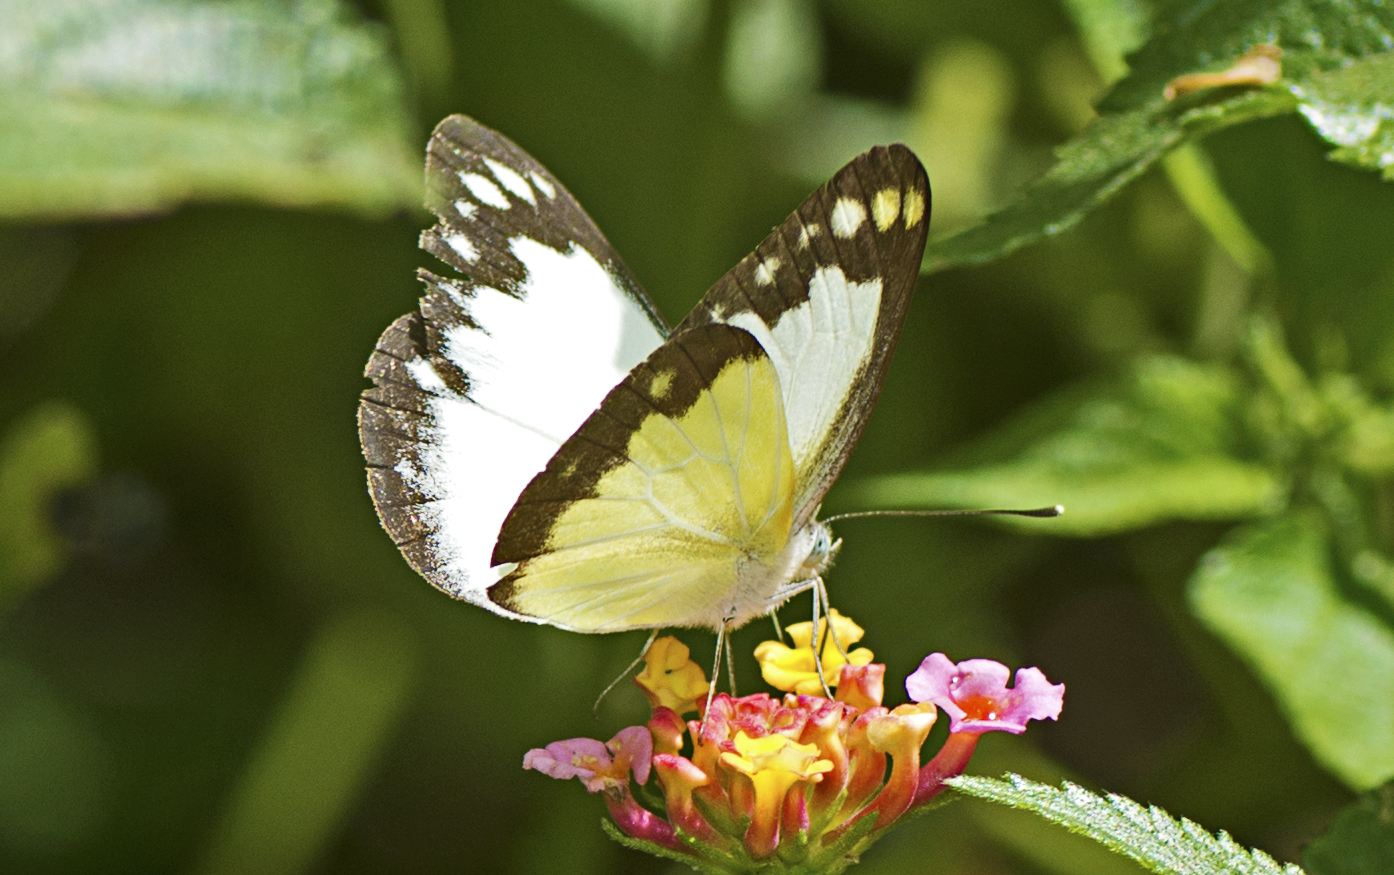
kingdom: Animalia
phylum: Arthropoda
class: Insecta
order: Lepidoptera
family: Pieridae
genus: Cepora
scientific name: Cepora perimale
